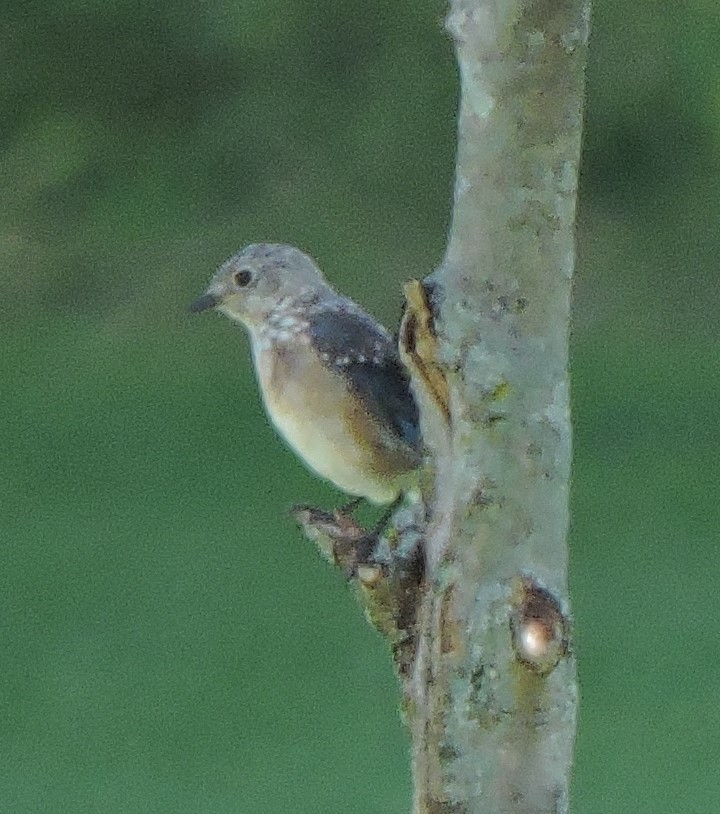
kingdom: Animalia
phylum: Chordata
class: Aves
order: Passeriformes
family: Turdidae
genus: Sialia
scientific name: Sialia sialis
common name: Eastern bluebird
